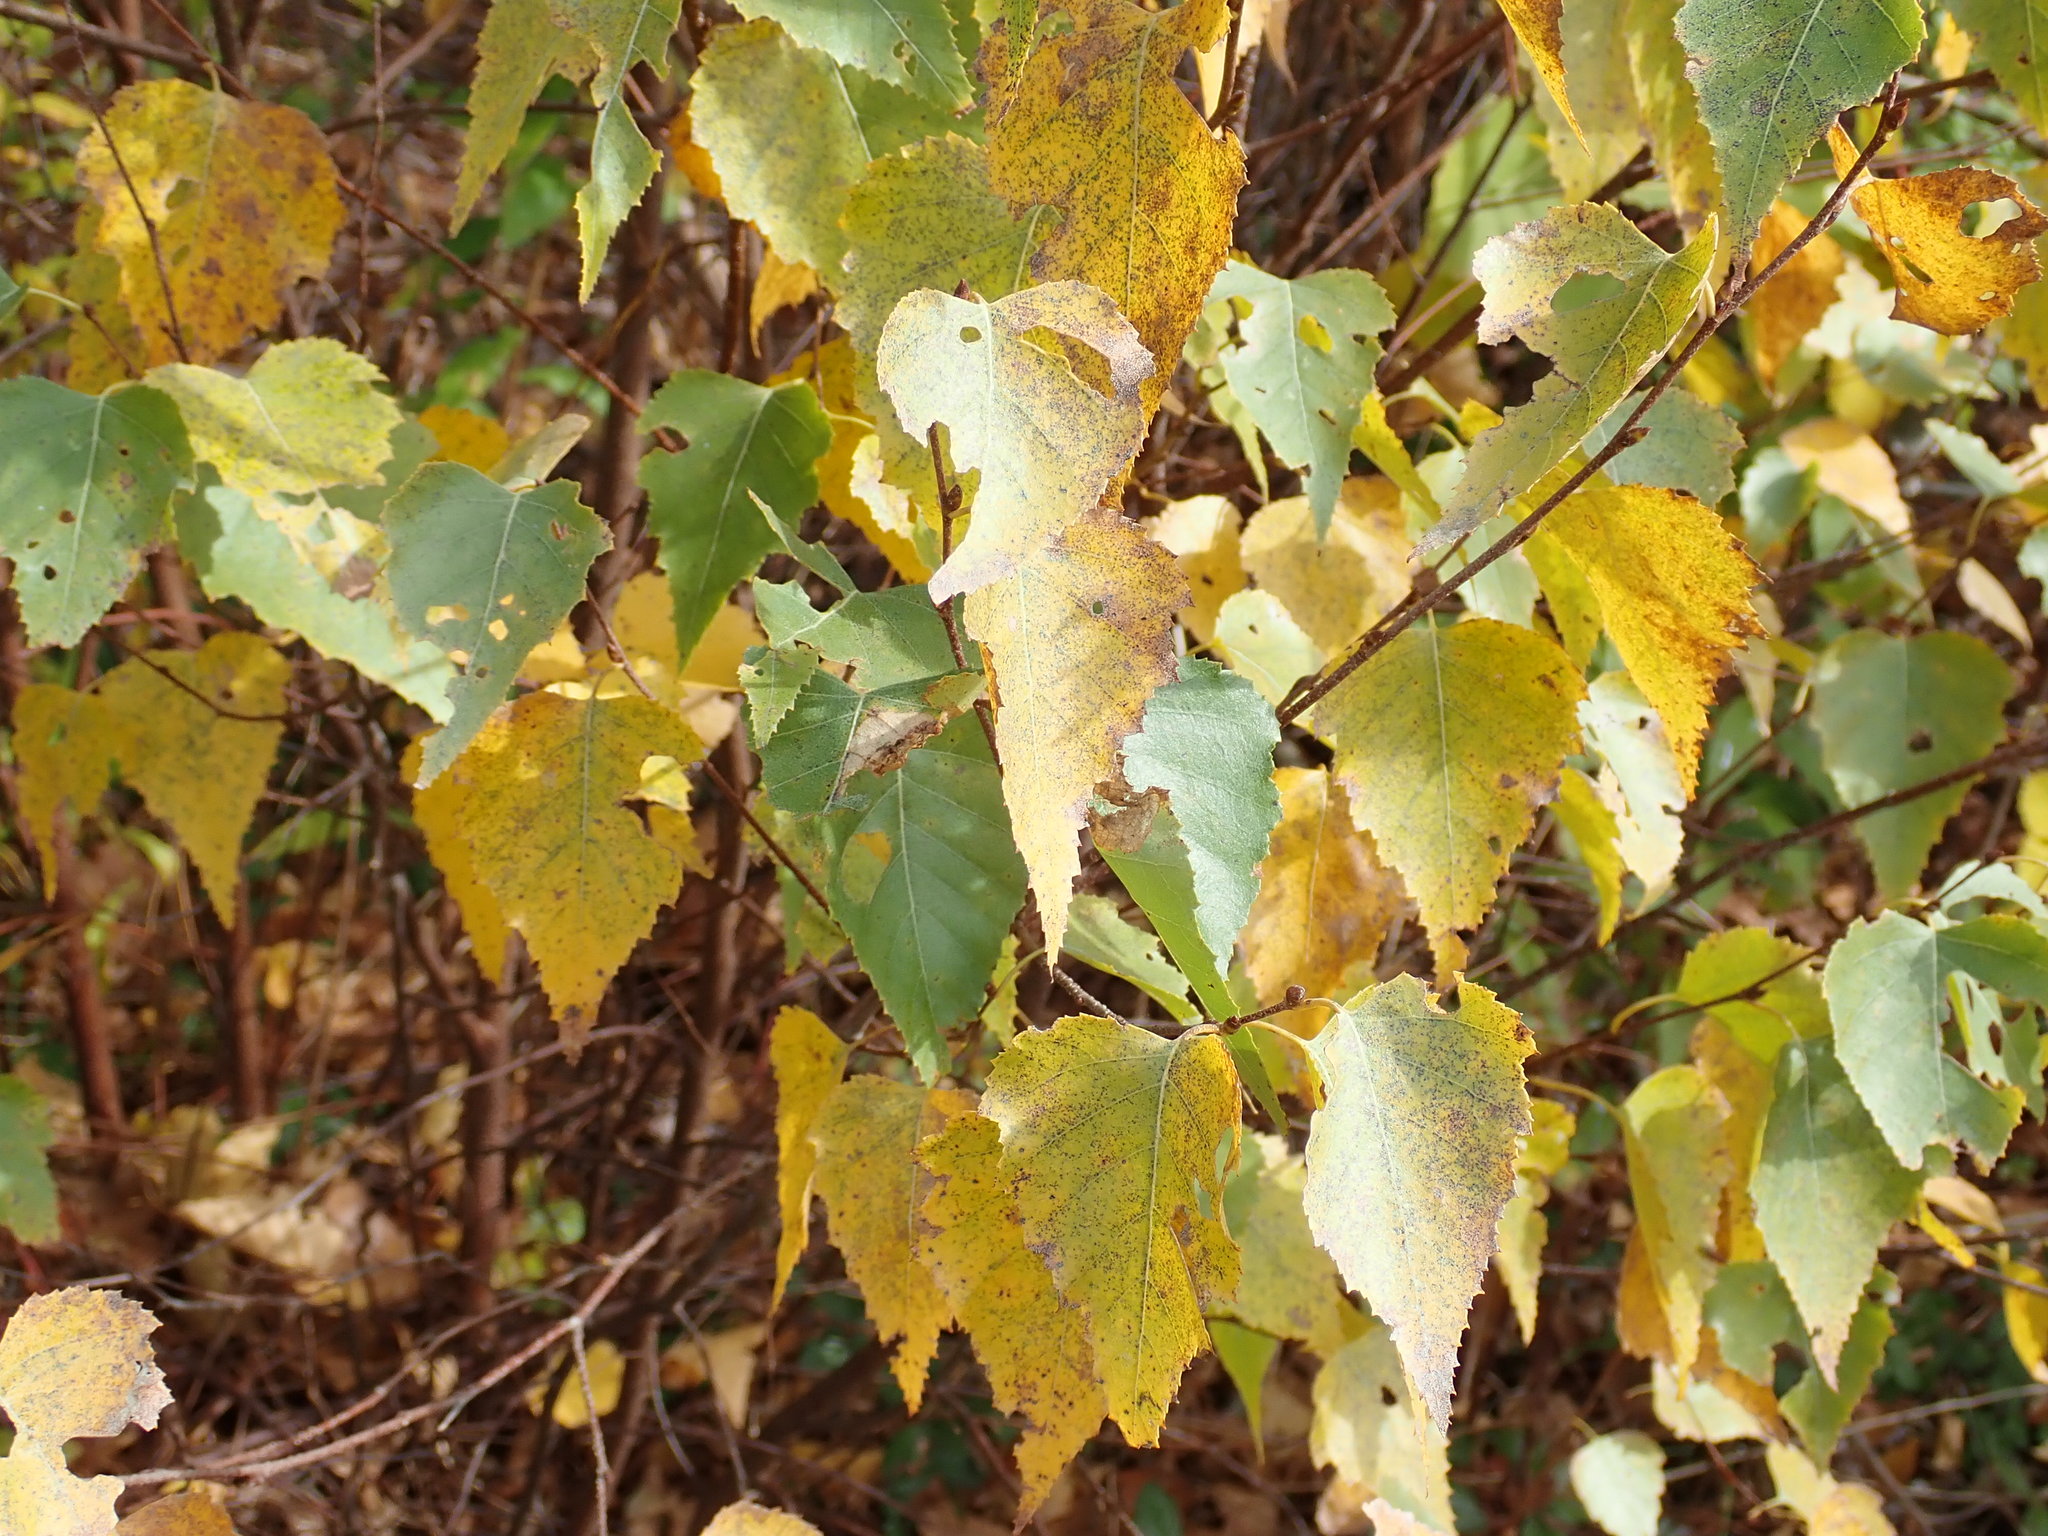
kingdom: Plantae
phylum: Tracheophyta
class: Magnoliopsida
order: Fagales
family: Betulaceae
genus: Betula
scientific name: Betula populifolia
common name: Fire birch
